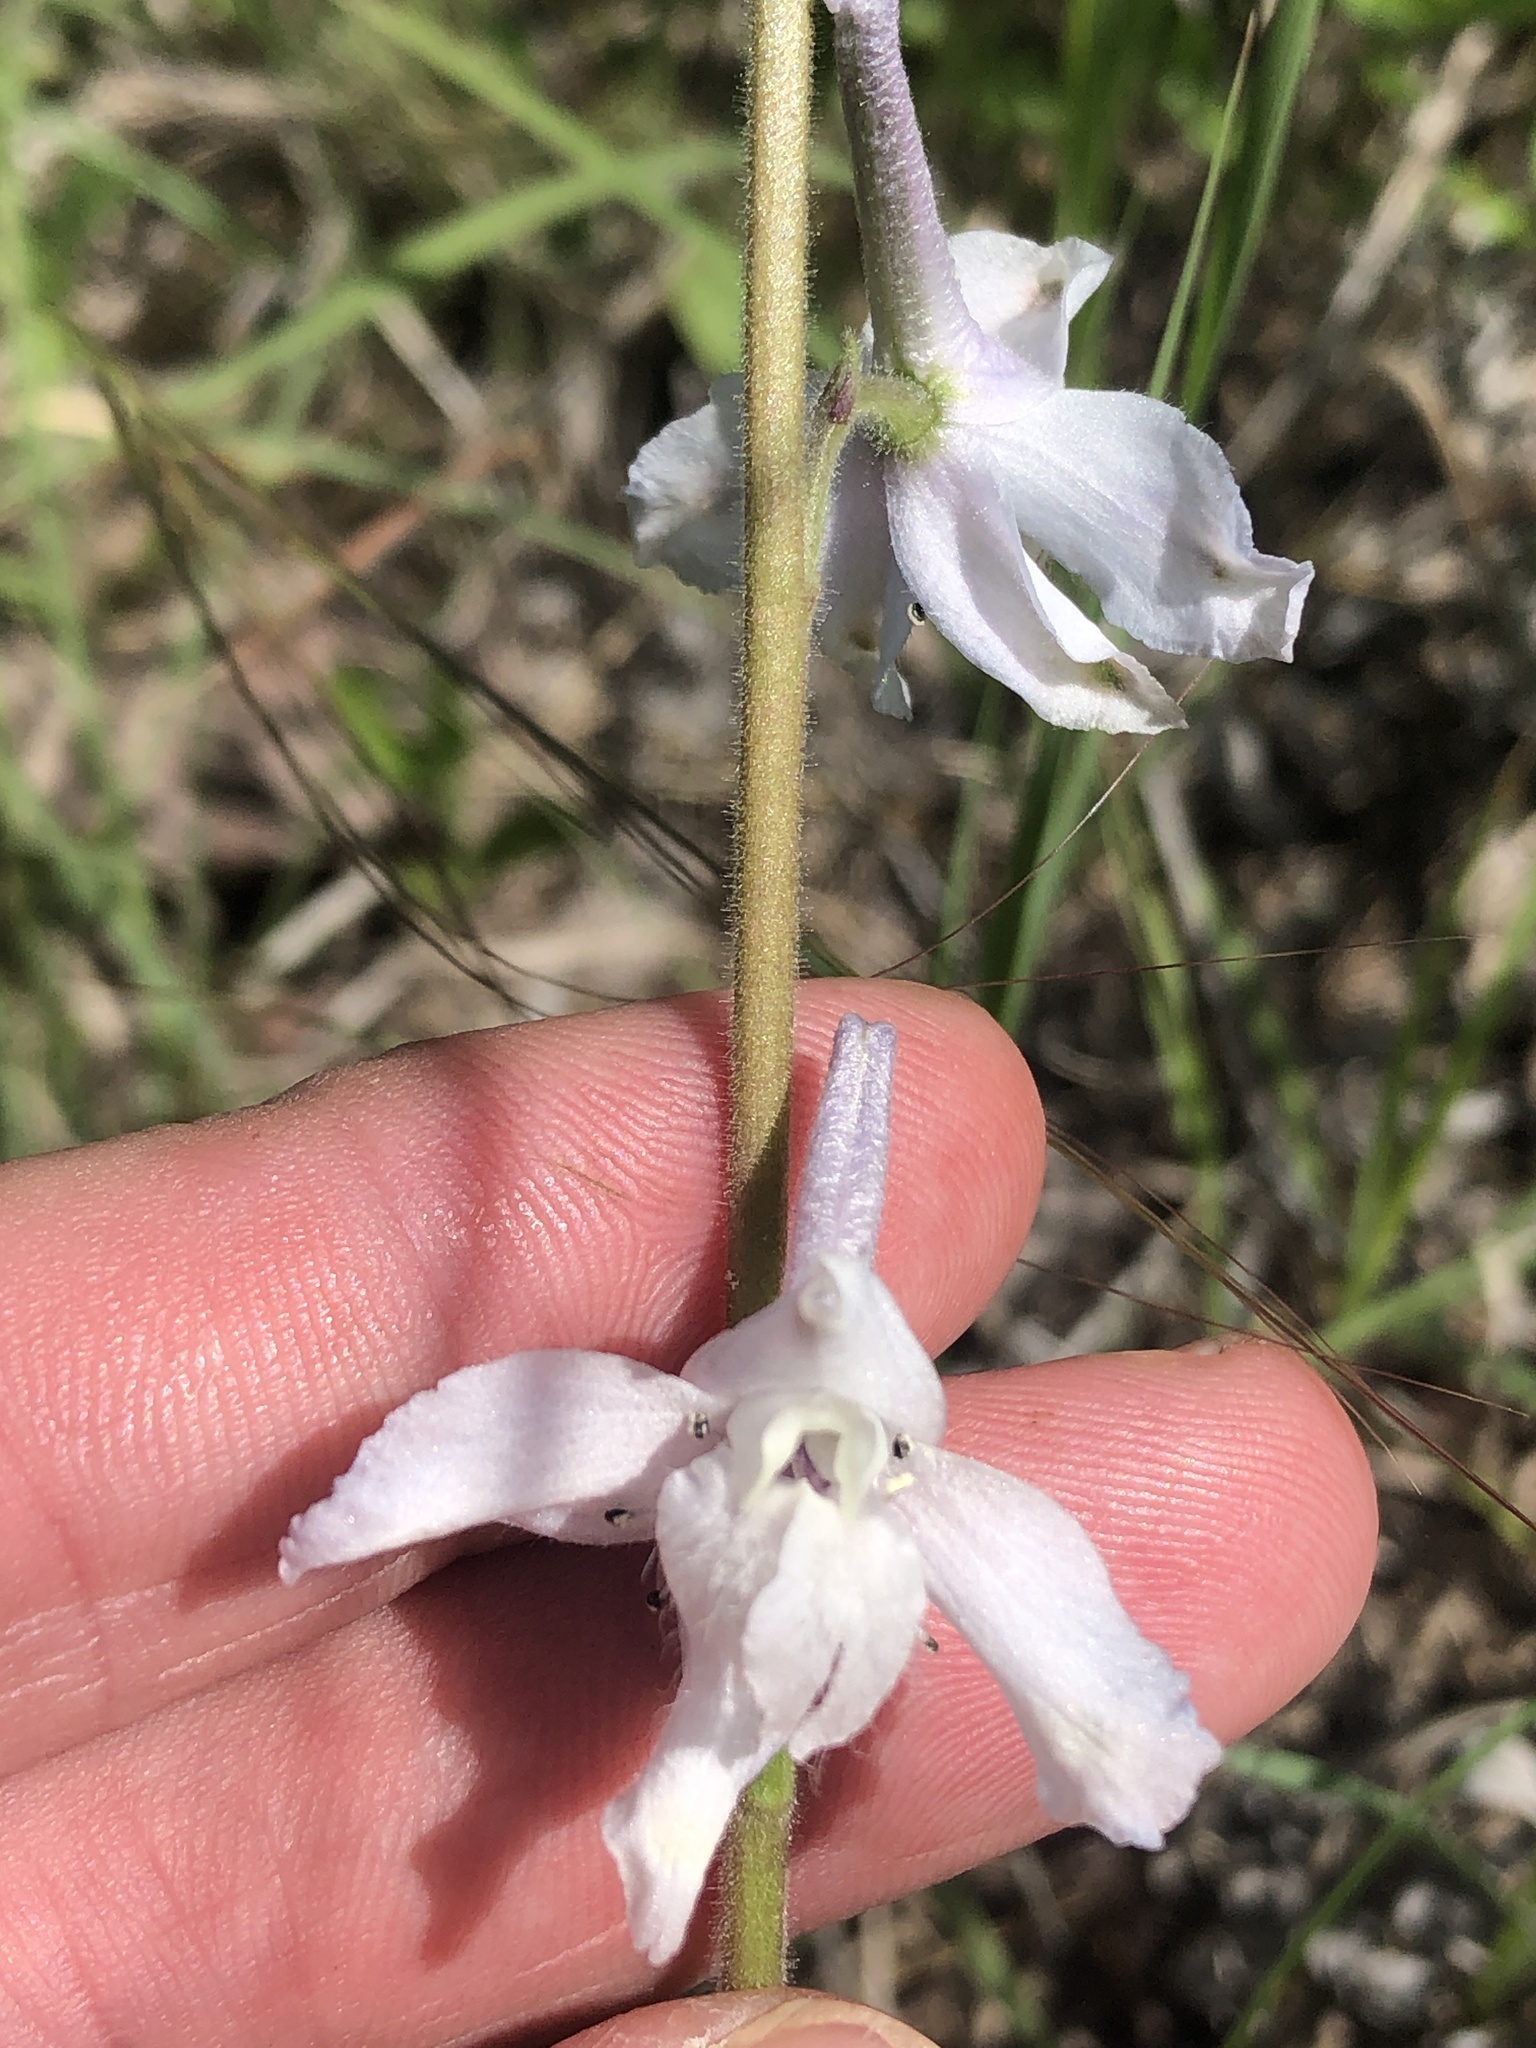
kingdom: Plantae
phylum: Tracheophyta
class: Magnoliopsida
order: Ranunculales
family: Ranunculaceae
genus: Delphinium
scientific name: Delphinium carolinianum
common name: Carolina larkspur
